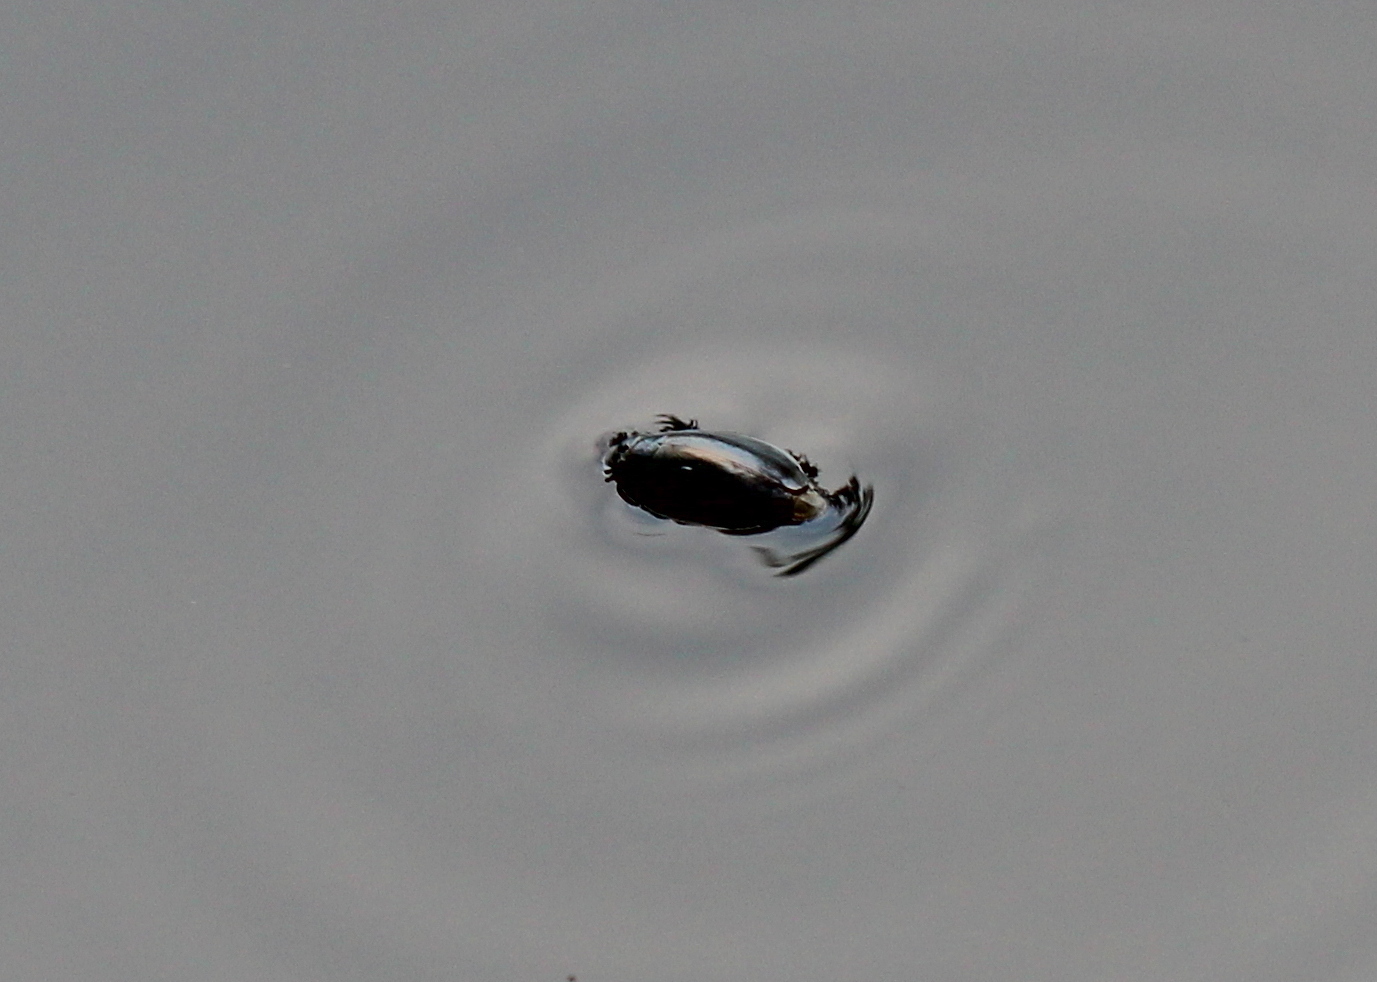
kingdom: Animalia
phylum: Arthropoda
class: Insecta
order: Coleoptera
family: Gyrinidae
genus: Dineutus
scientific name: Dineutus
